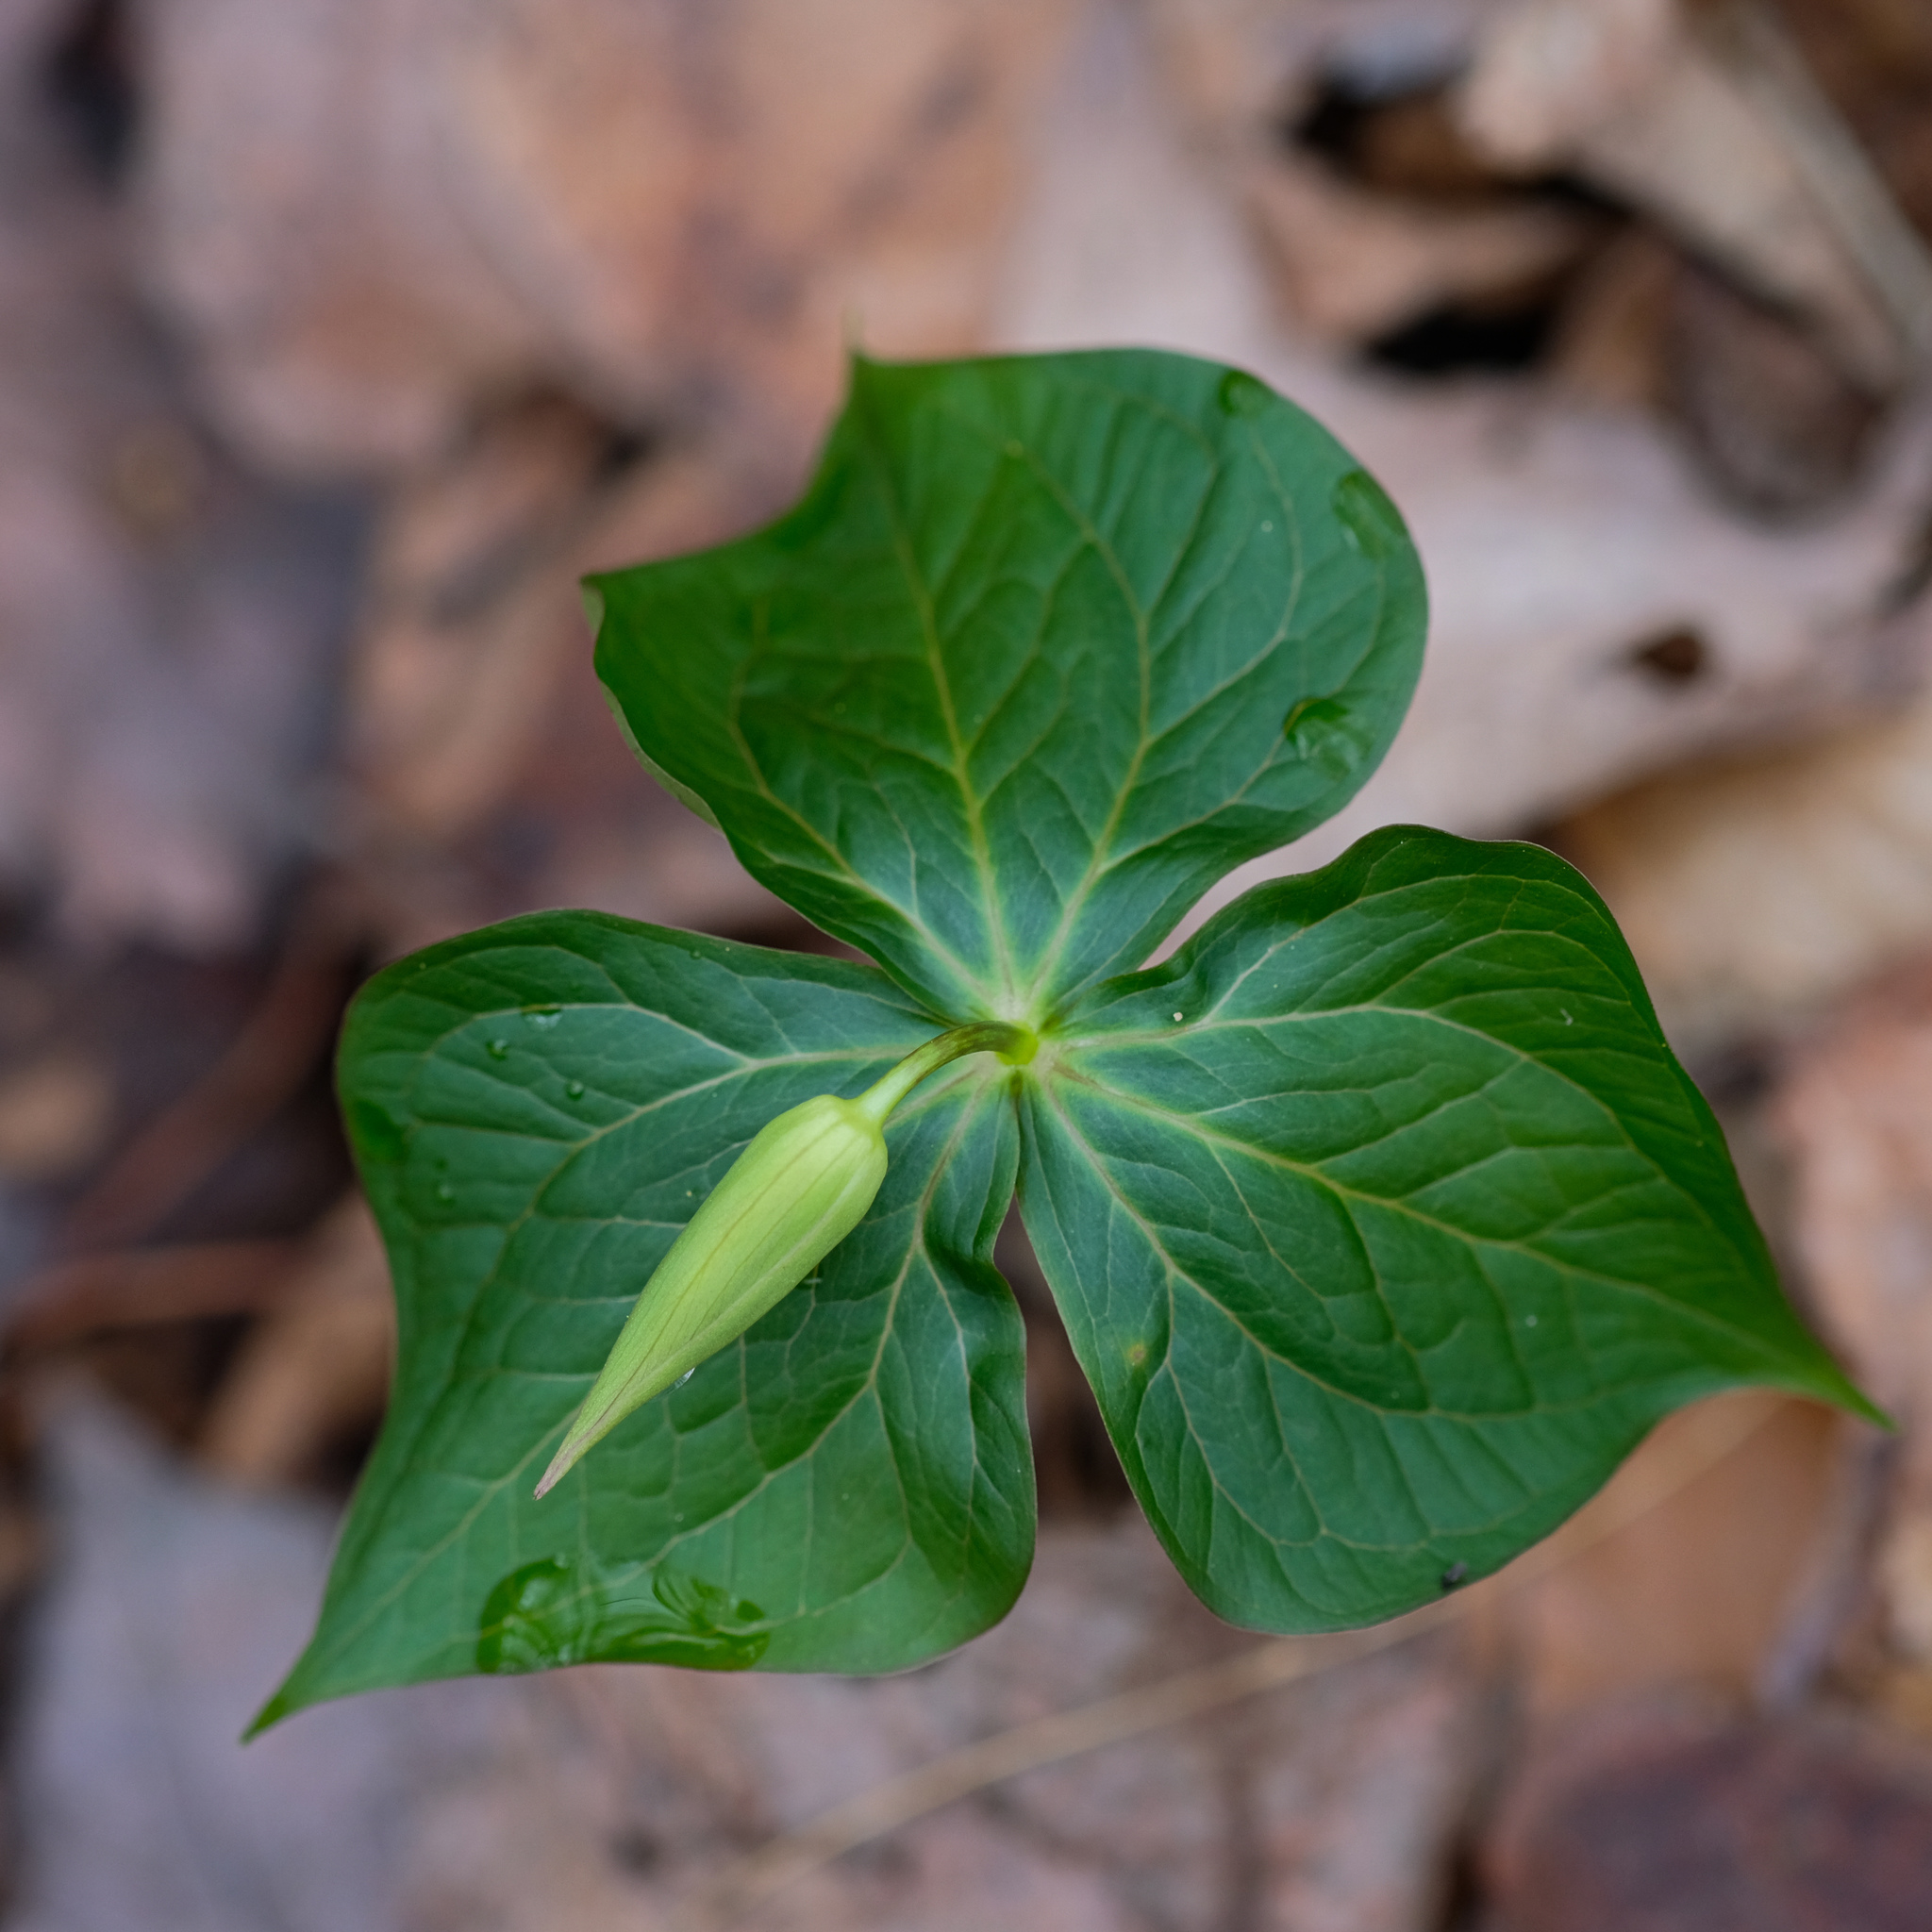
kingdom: Plantae
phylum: Tracheophyta
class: Liliopsida
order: Liliales
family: Melanthiaceae
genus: Trillium
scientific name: Trillium erectum
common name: Purple trillium
